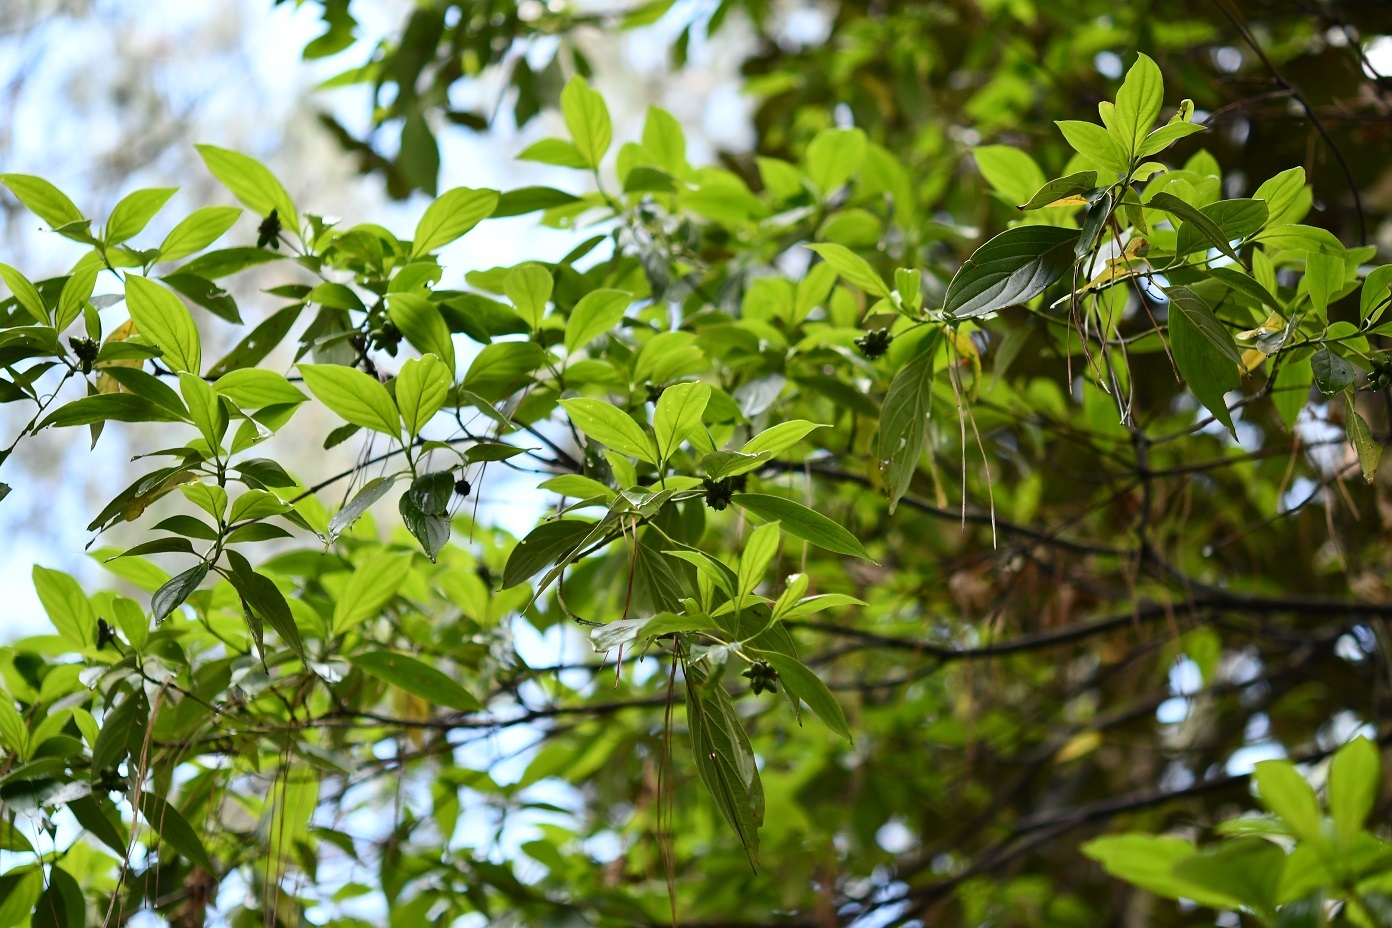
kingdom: Plantae
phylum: Tracheophyta
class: Magnoliopsida
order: Cornales
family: Cornaceae
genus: Cornus
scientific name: Cornus disciflora
